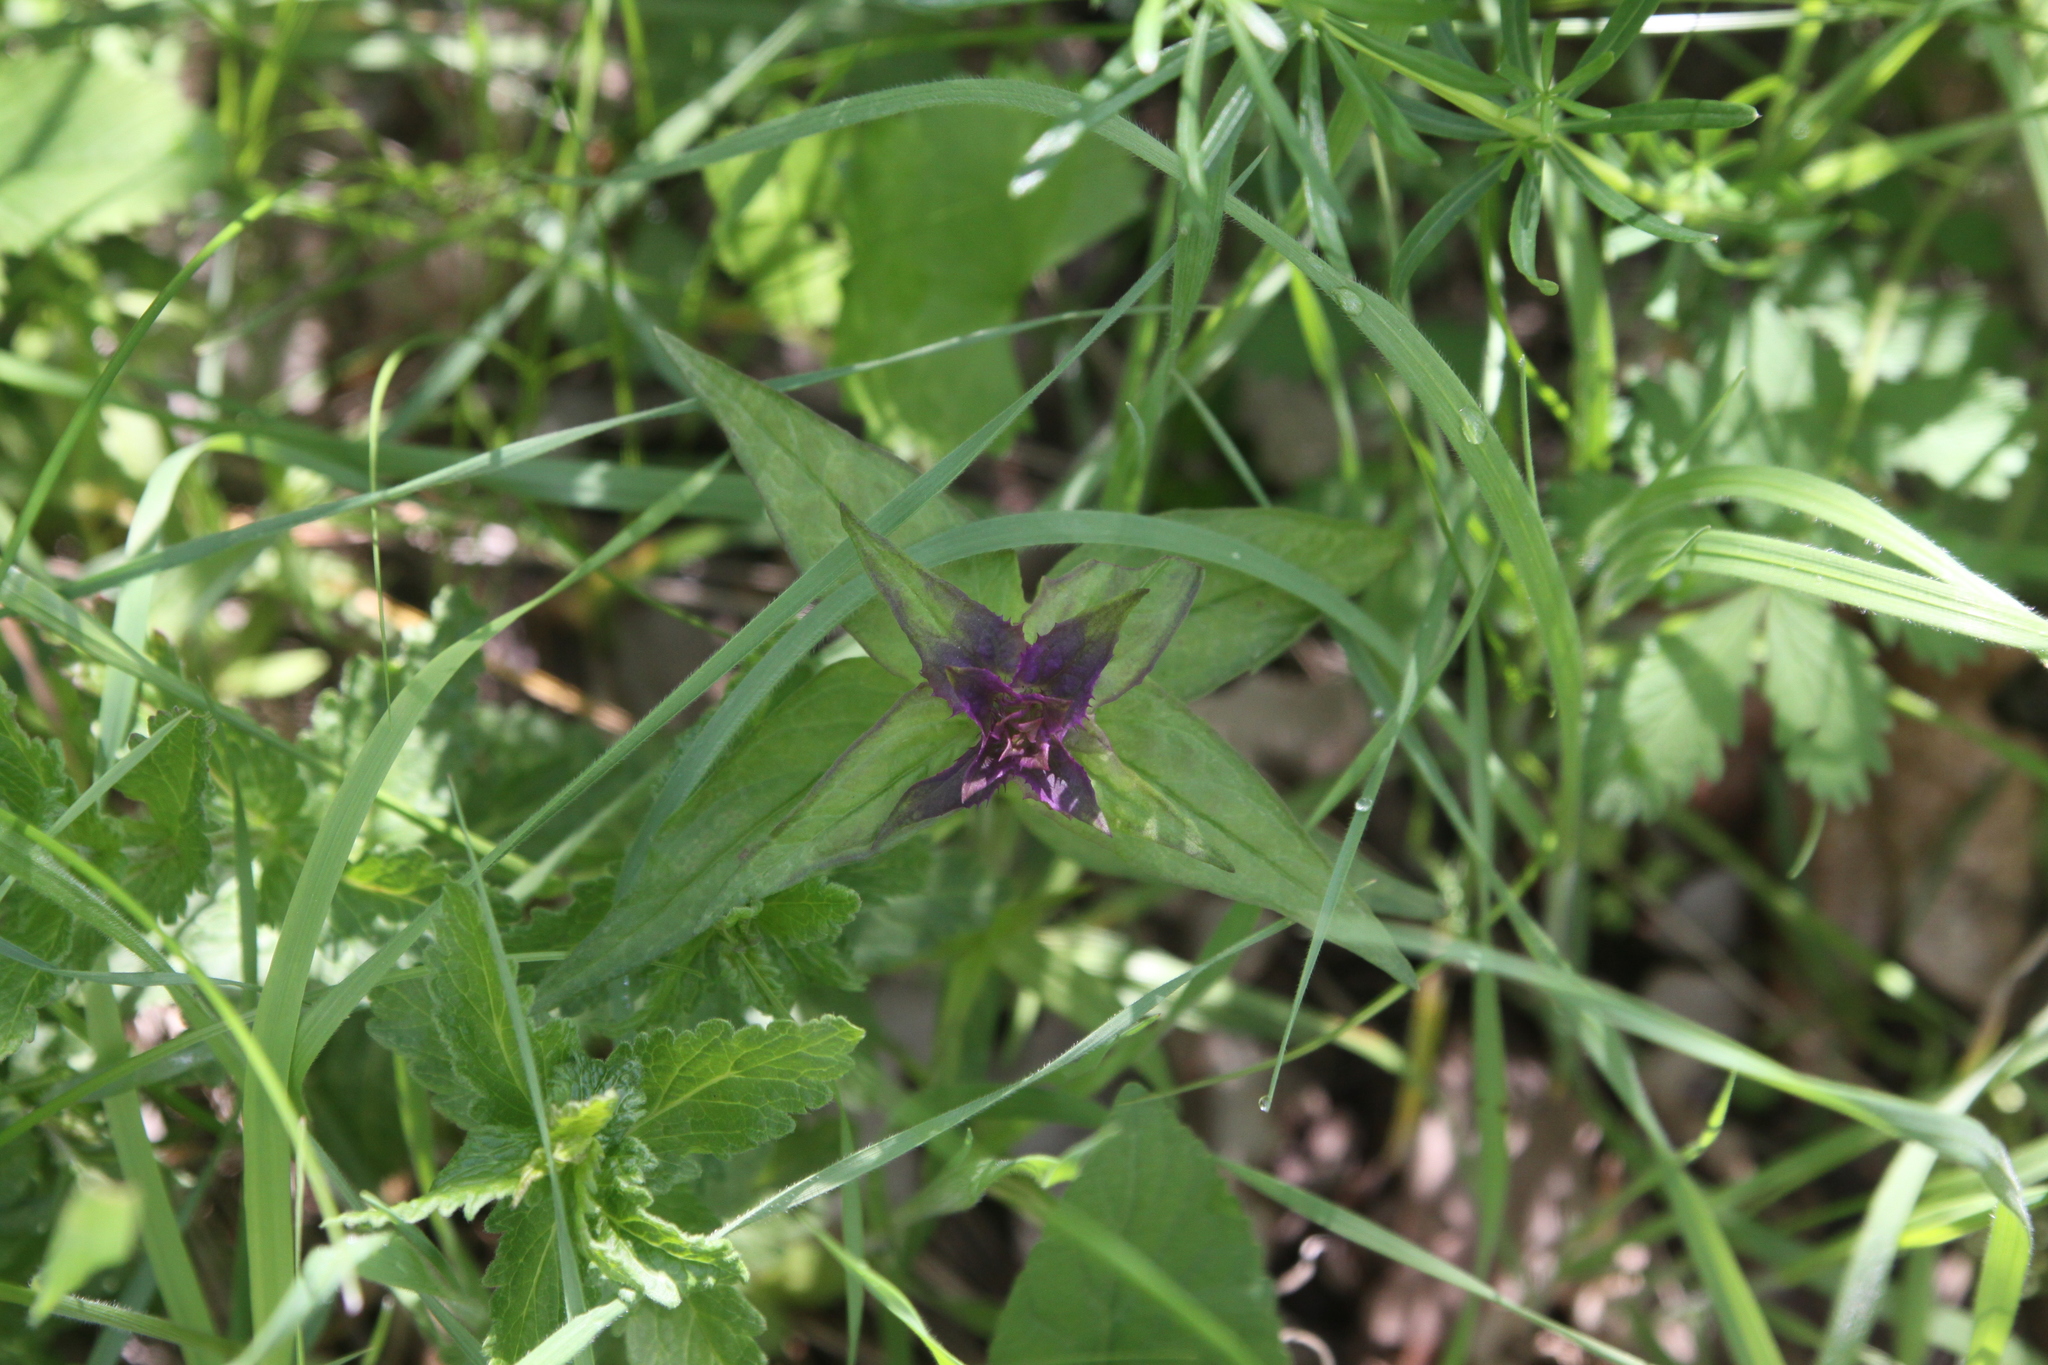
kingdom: Plantae
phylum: Tracheophyta
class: Magnoliopsida
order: Lamiales
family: Orobanchaceae
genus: Melampyrum
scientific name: Melampyrum nemorosum
